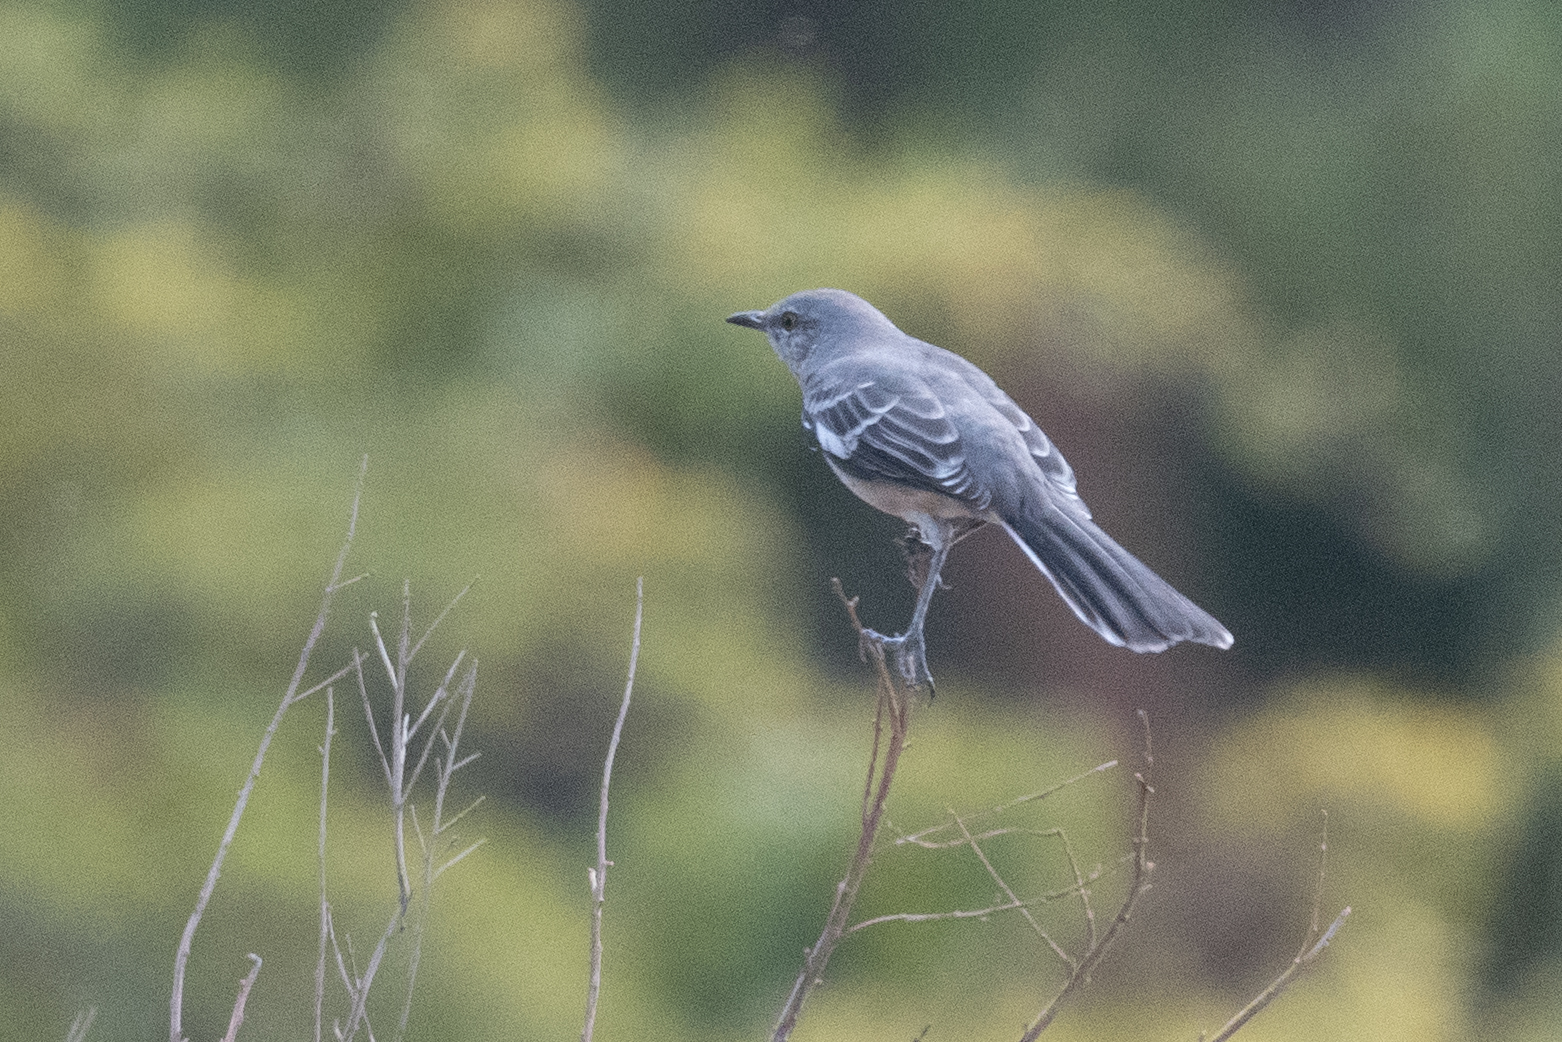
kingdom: Animalia
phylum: Chordata
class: Aves
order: Passeriformes
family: Mimidae
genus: Mimus
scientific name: Mimus polyglottos
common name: Northern mockingbird
